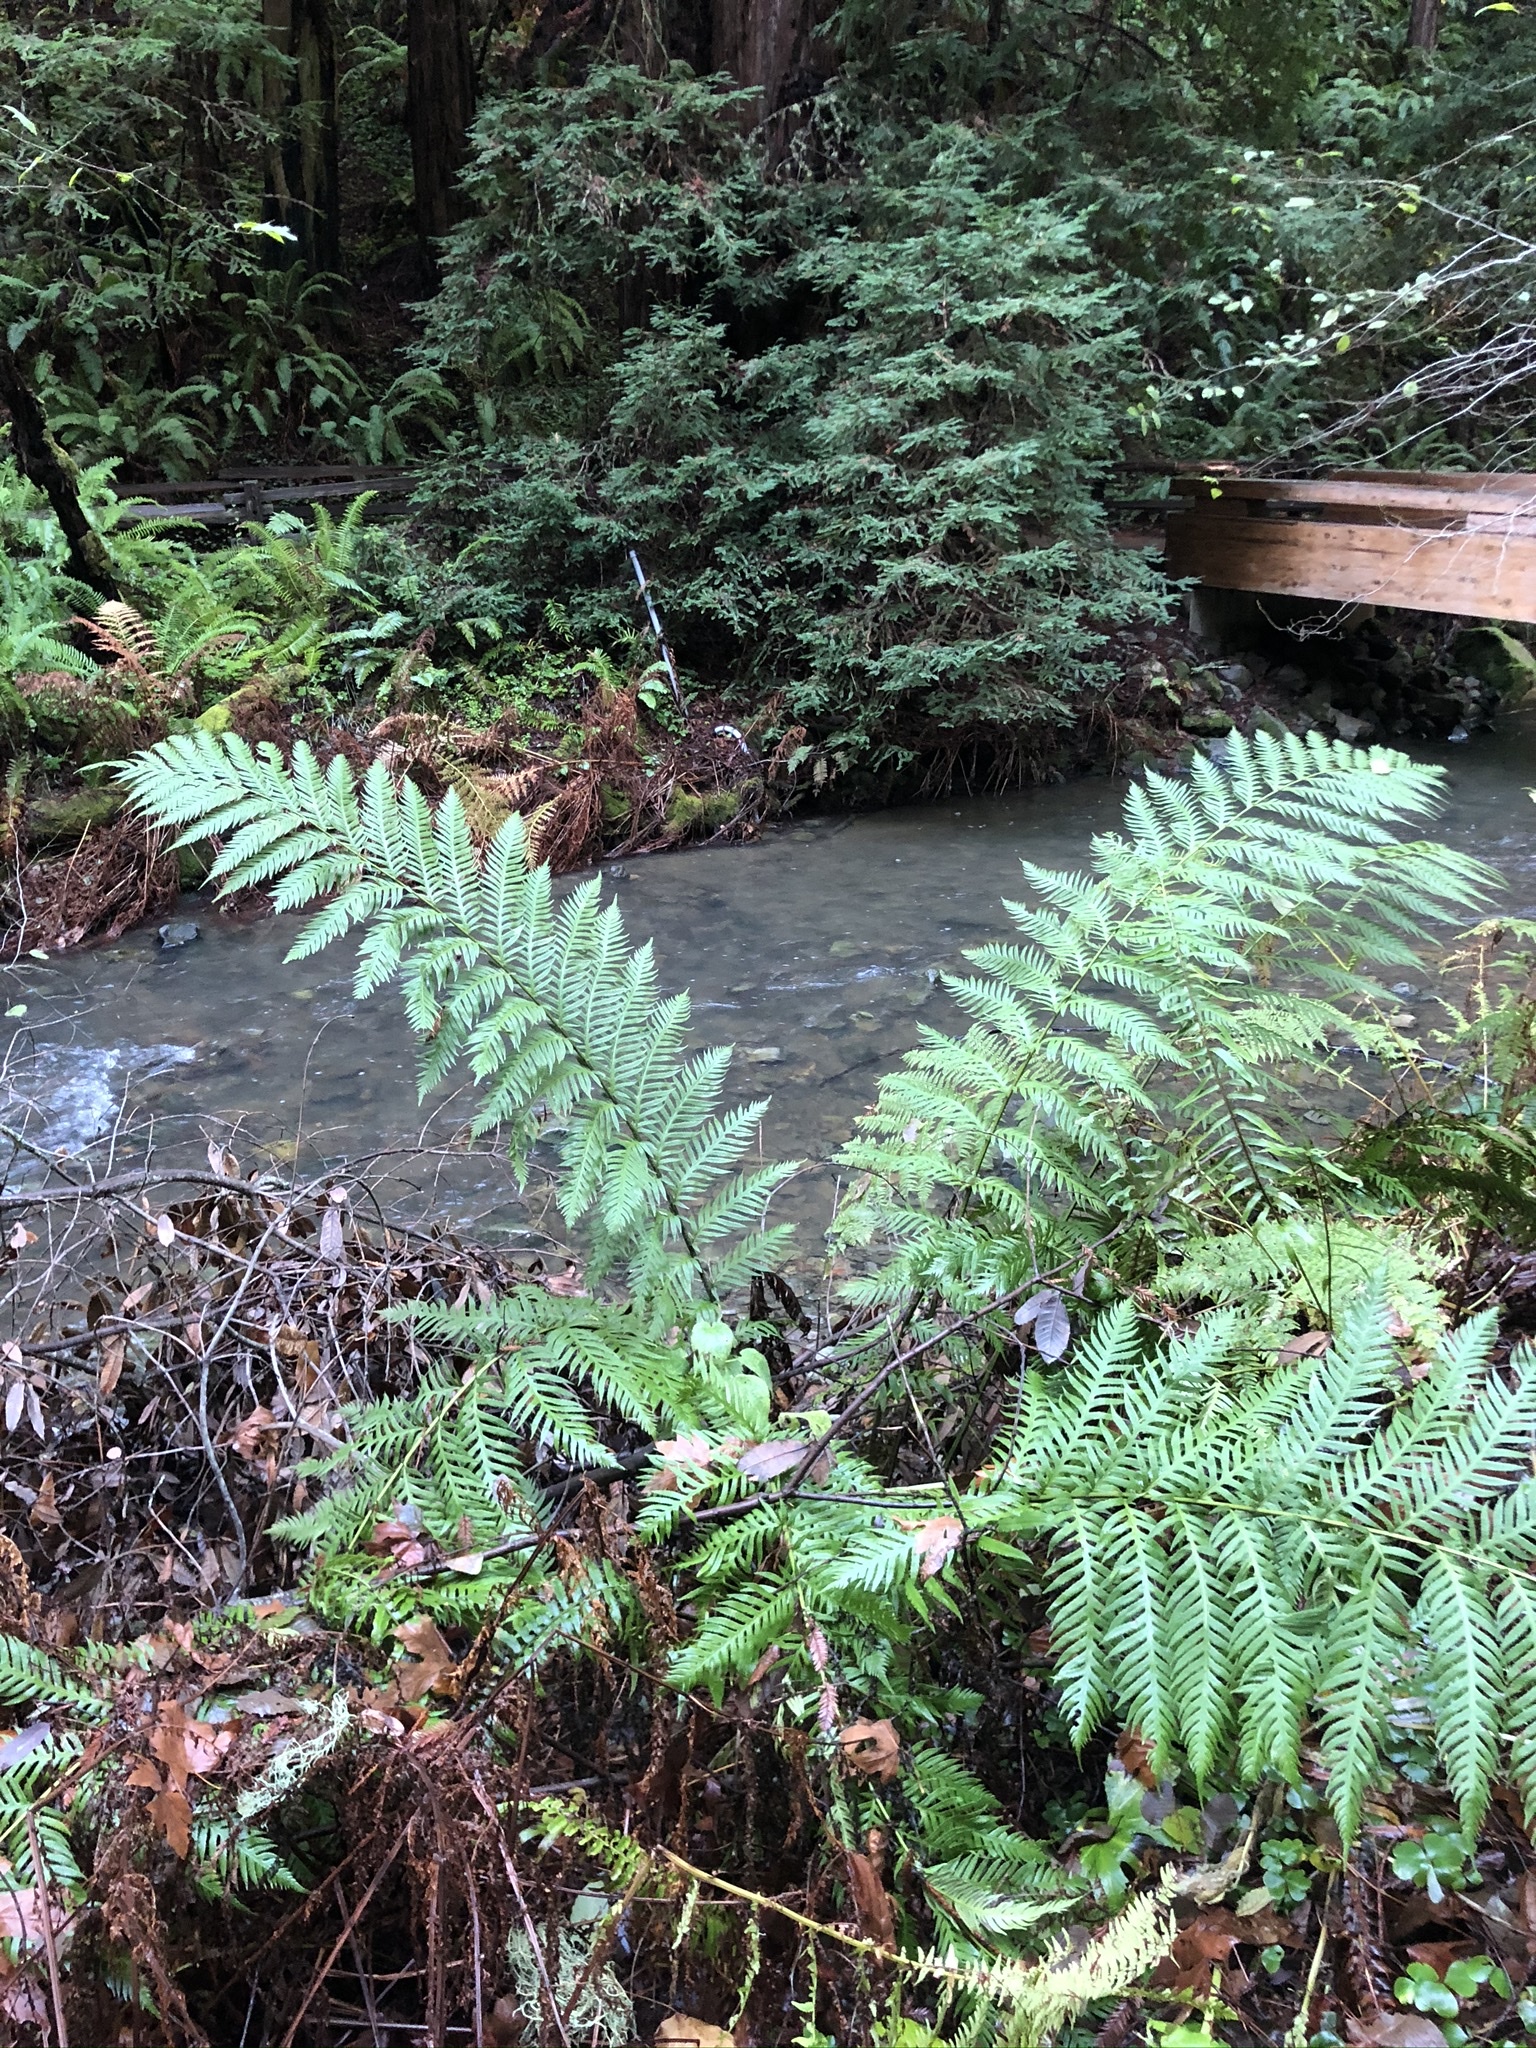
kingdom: Plantae
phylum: Tracheophyta
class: Polypodiopsida
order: Polypodiales
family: Blechnaceae
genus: Woodwardia
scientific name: Woodwardia fimbriata
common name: Giant chain fern
